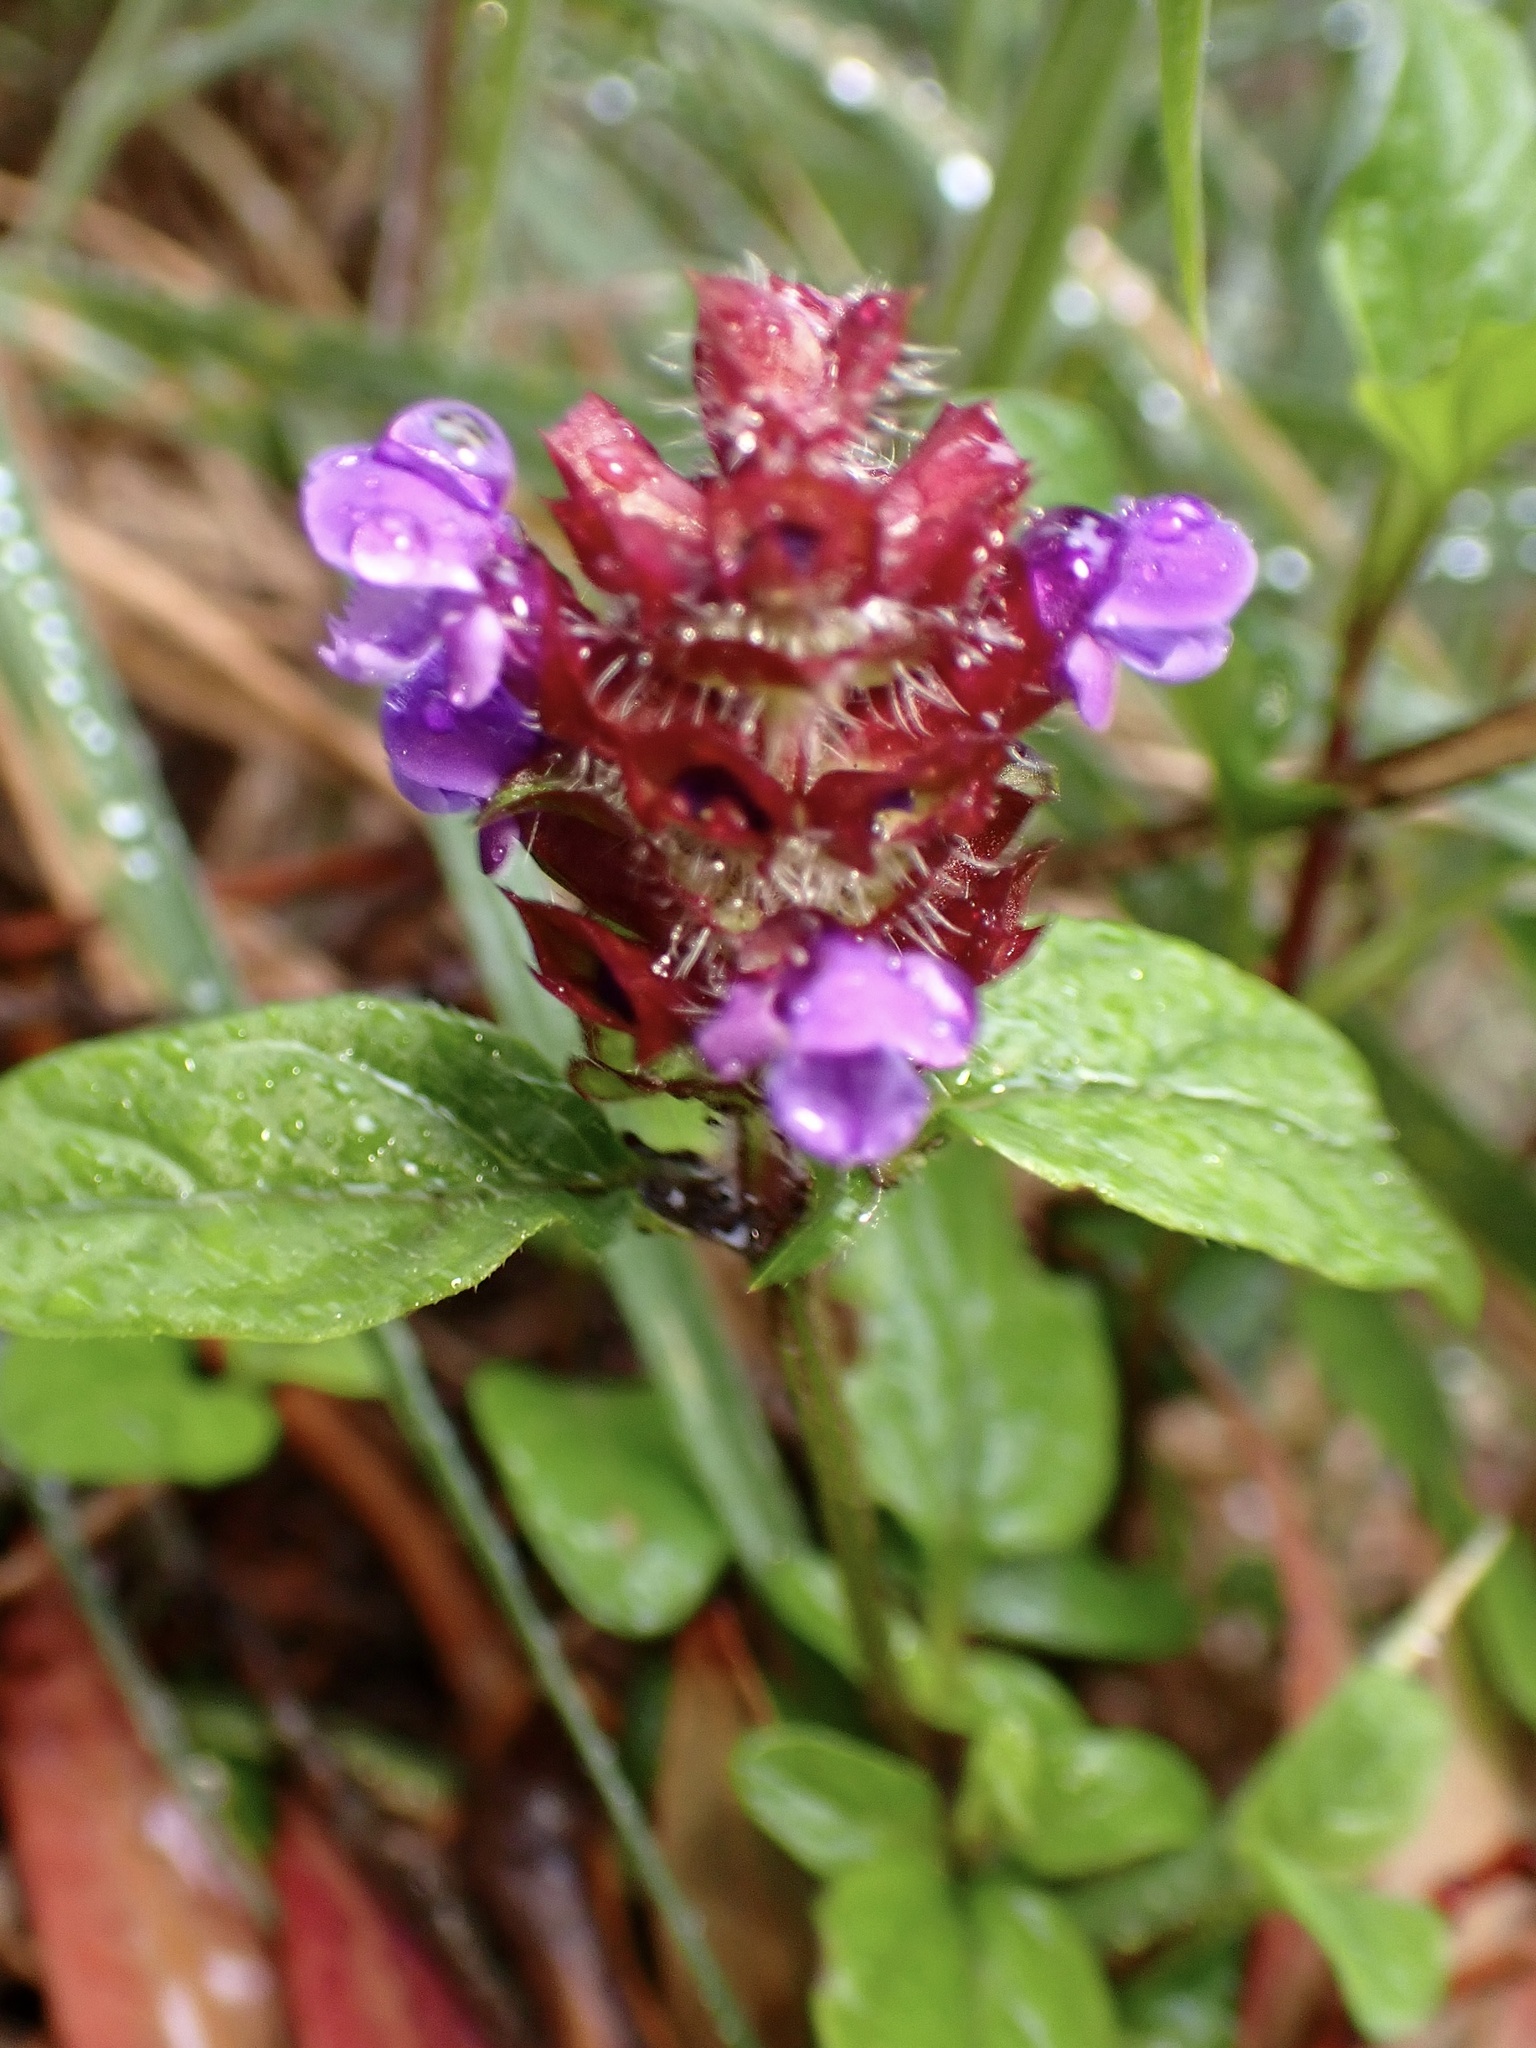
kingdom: Plantae
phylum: Tracheophyta
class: Magnoliopsida
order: Lamiales
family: Lamiaceae
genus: Prunella
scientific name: Prunella vulgaris
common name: Heal-all
